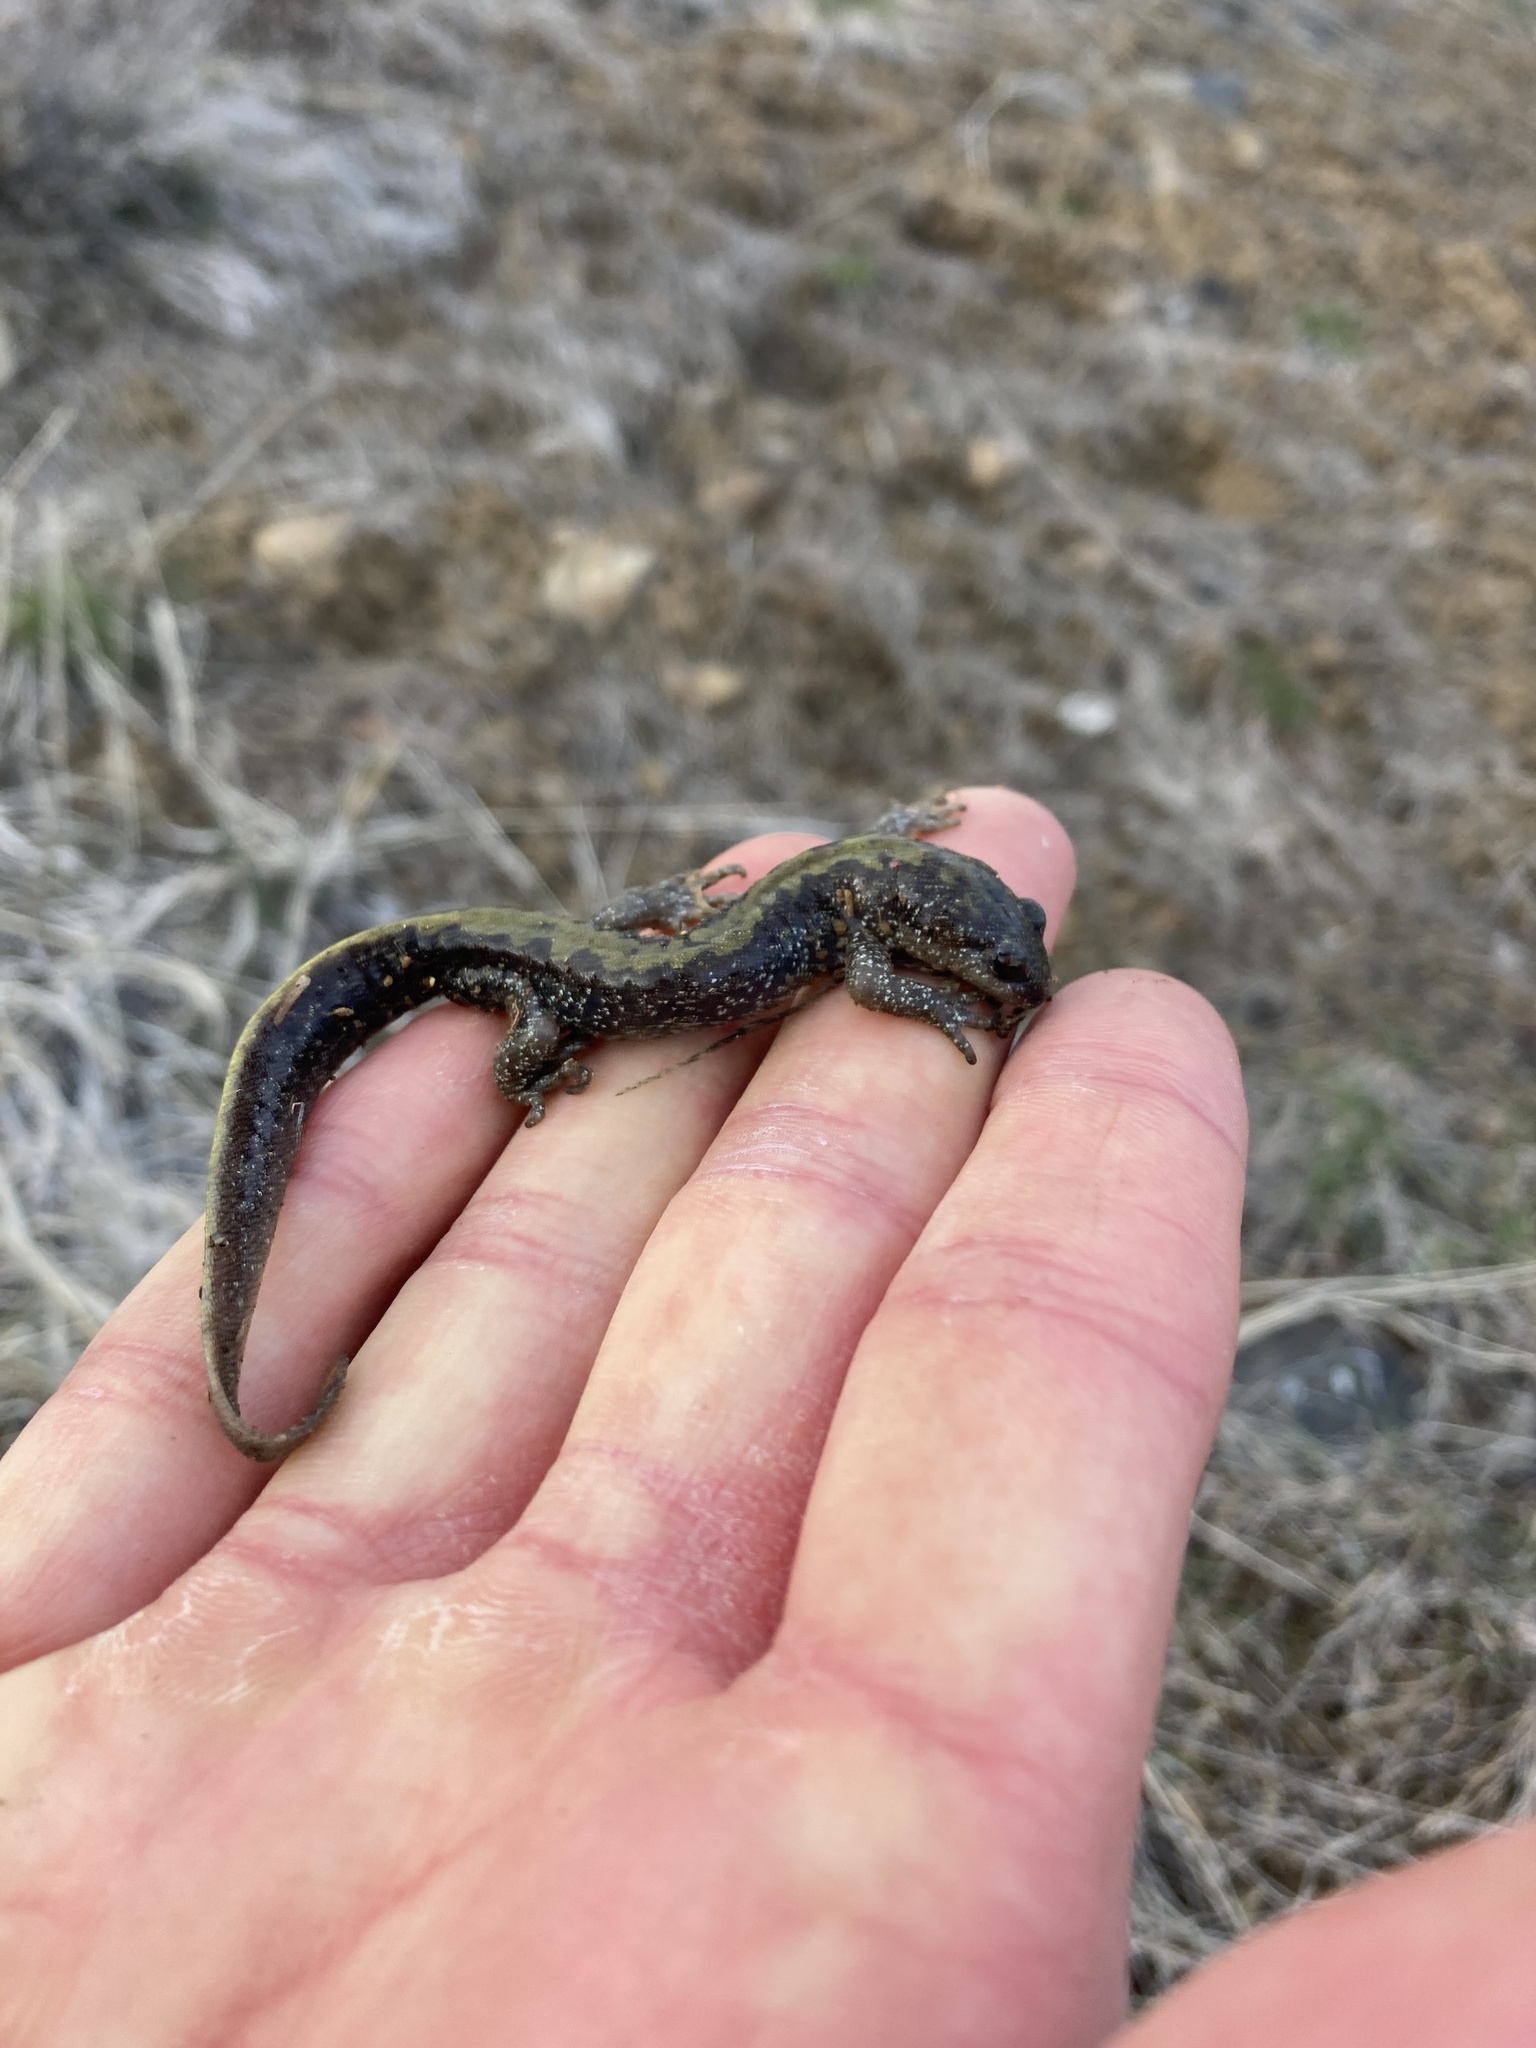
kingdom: Animalia
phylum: Chordata
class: Amphibia
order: Caudata
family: Ambystomatidae
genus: Ambystoma
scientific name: Ambystoma macrodactylum
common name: Long-toed salamander
